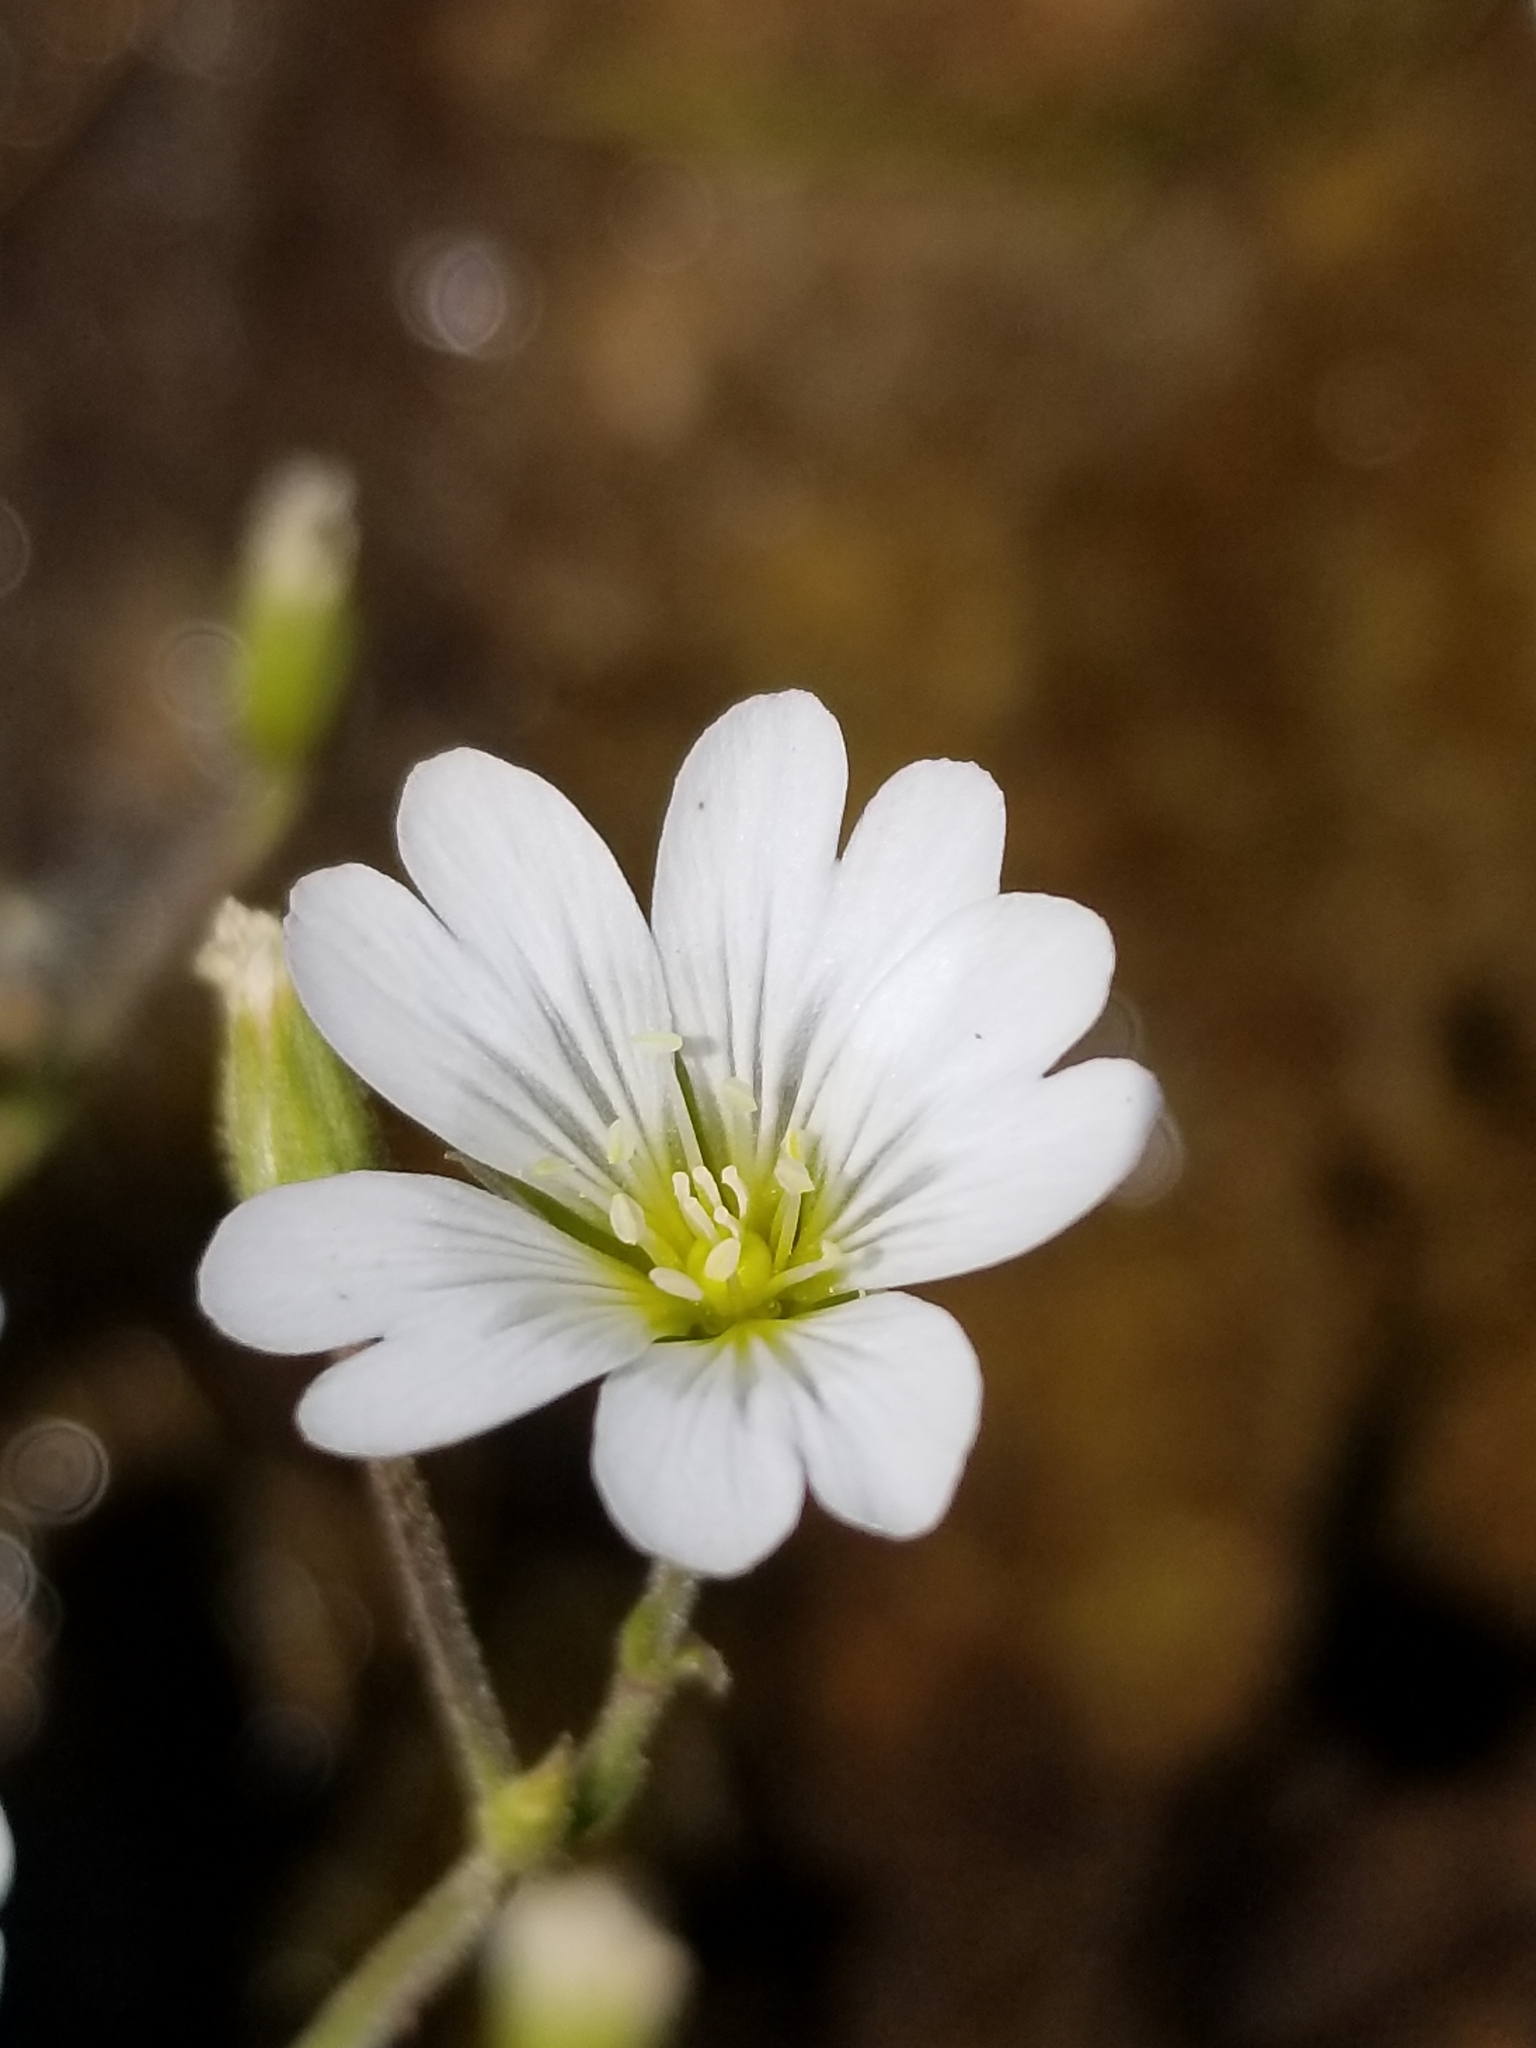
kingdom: Plantae
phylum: Tracheophyta
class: Magnoliopsida
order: Caryophyllales
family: Caryophyllaceae
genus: Cerastium
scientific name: Cerastium arvense
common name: Field mouse-ear
